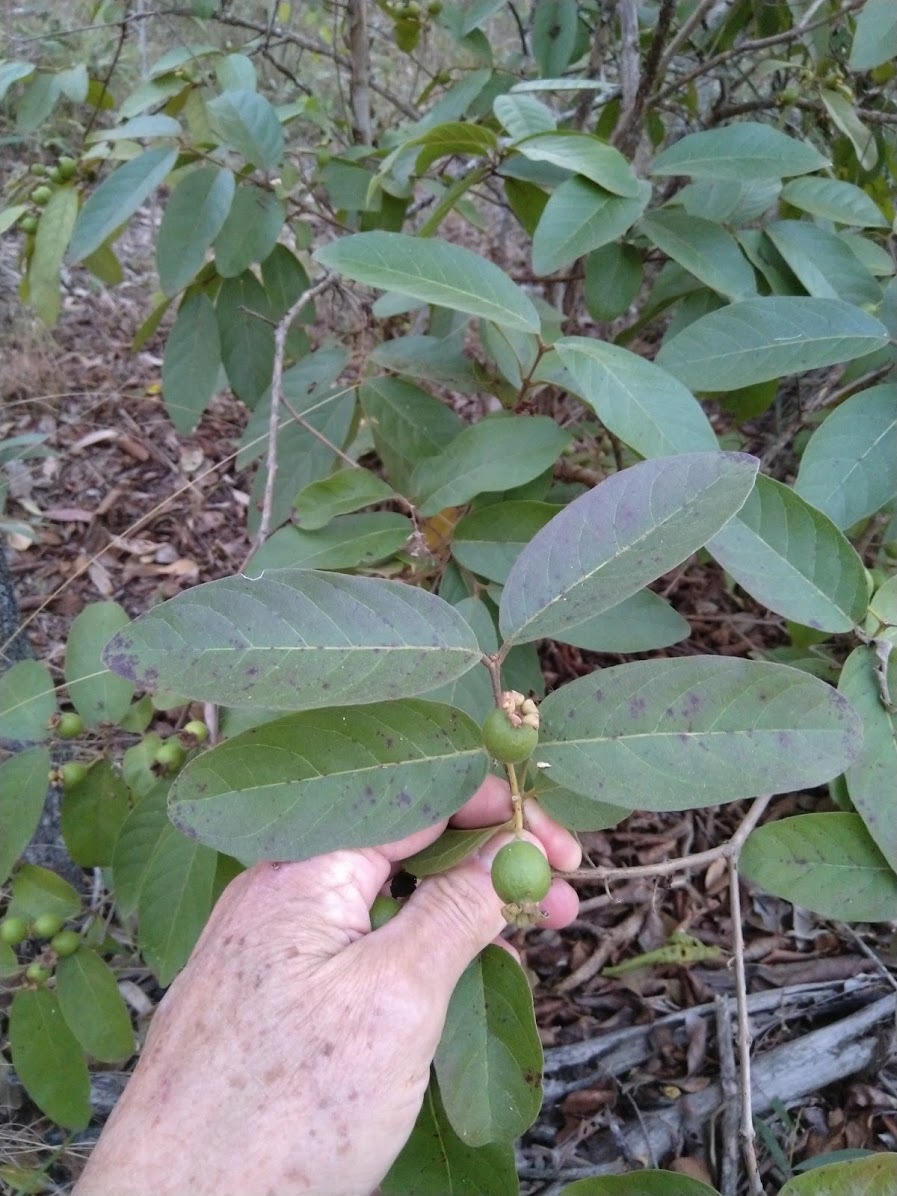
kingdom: Plantae
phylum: Tracheophyta
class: Magnoliopsida
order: Myrtales
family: Myrtaceae
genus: Psidium
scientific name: Psidium guineense
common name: Brazilian guava
